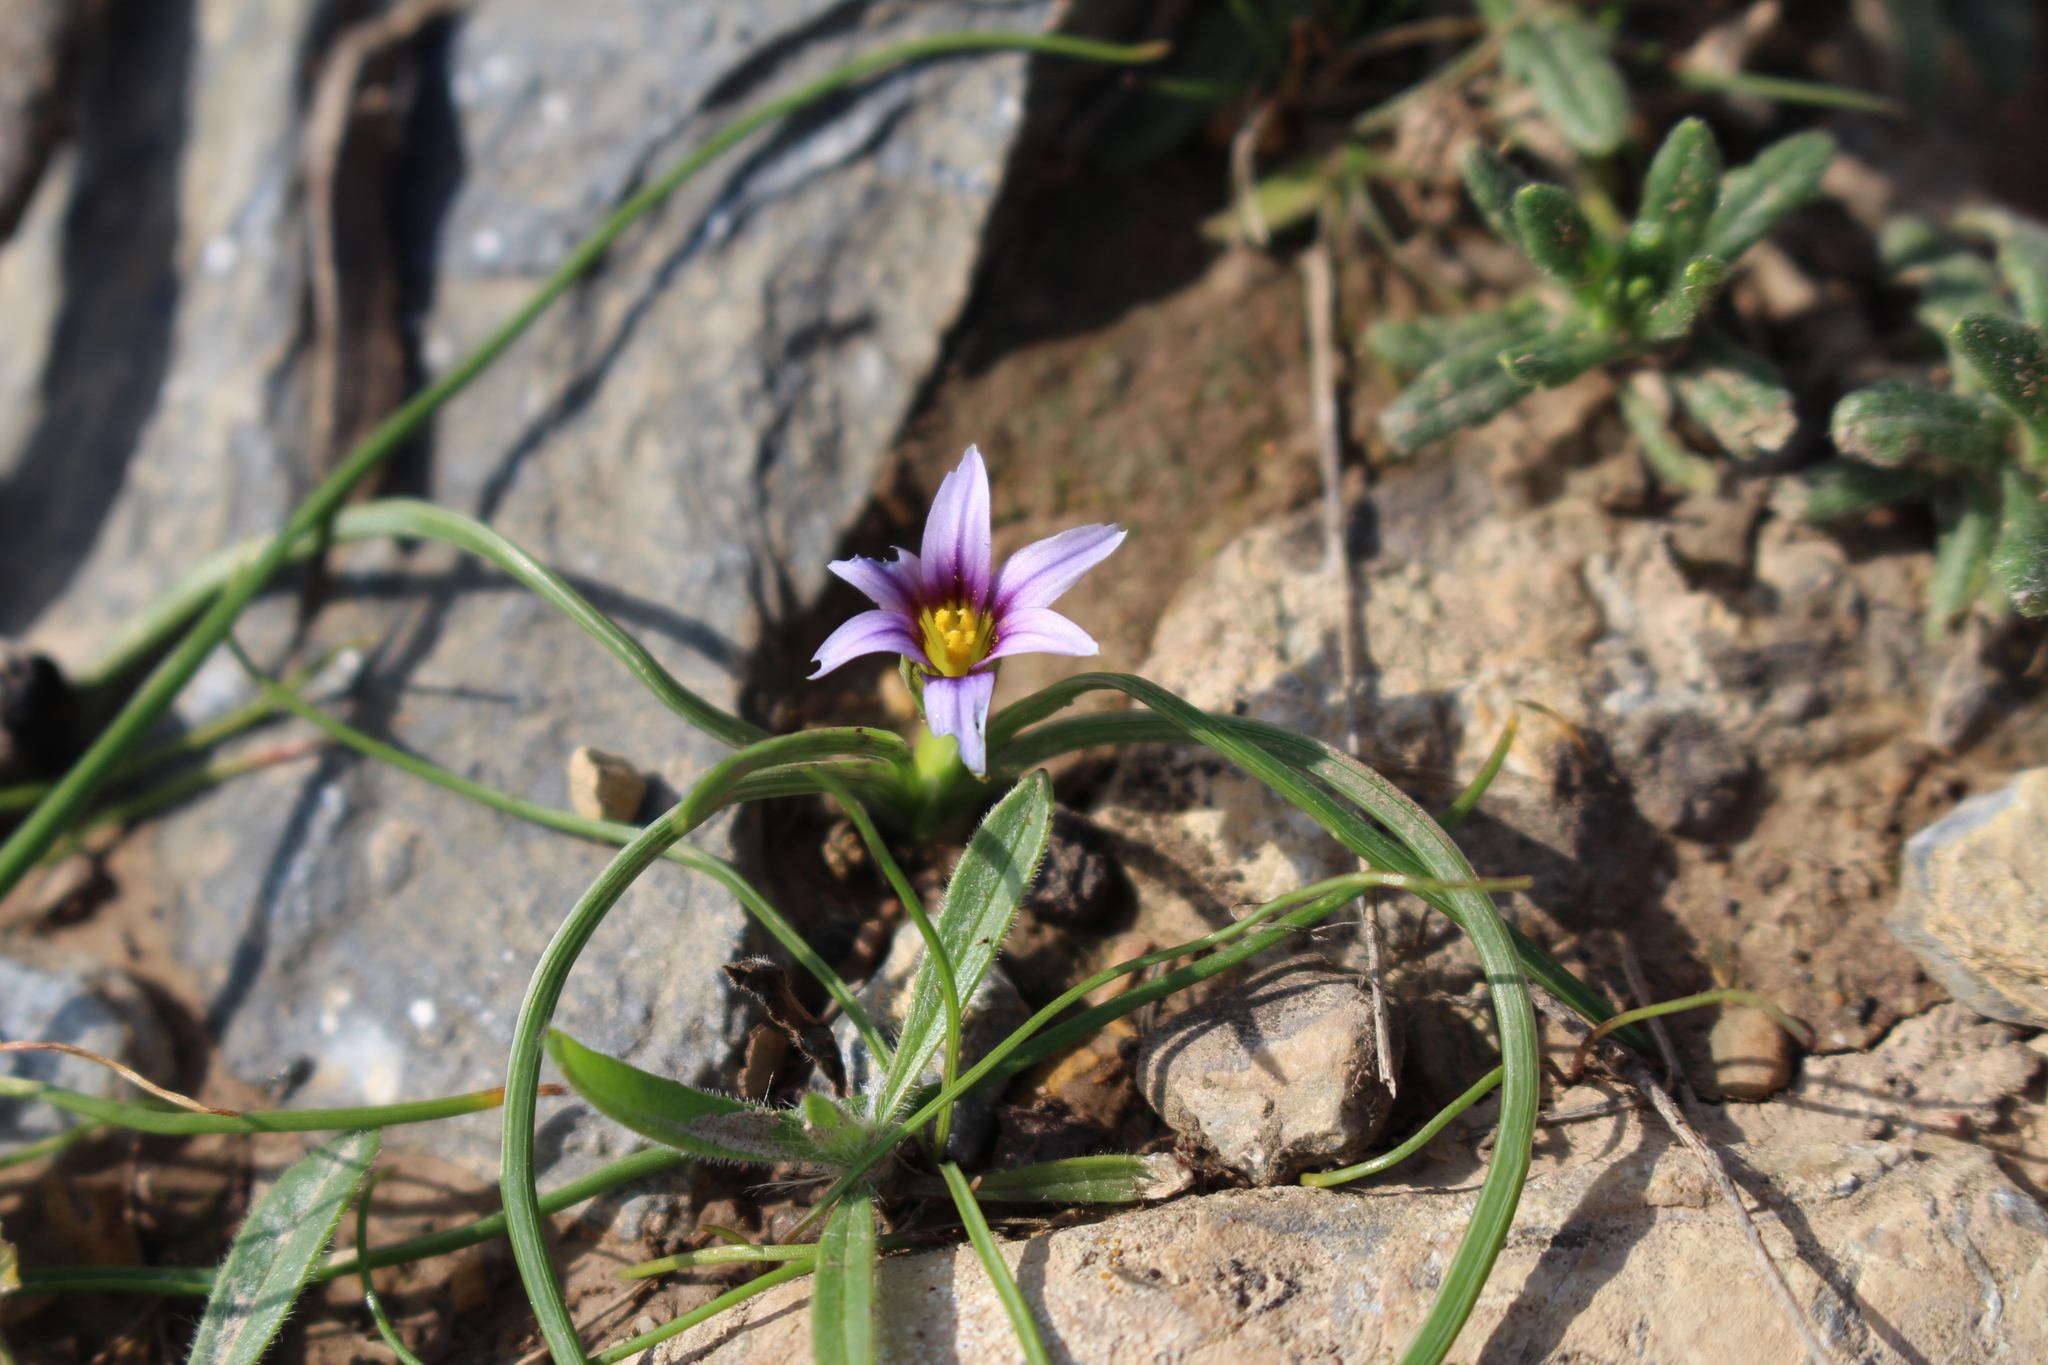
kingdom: Plantae
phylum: Tracheophyta
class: Liliopsida
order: Asparagales
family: Iridaceae
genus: Romulea
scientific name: Romulea ramiflora
